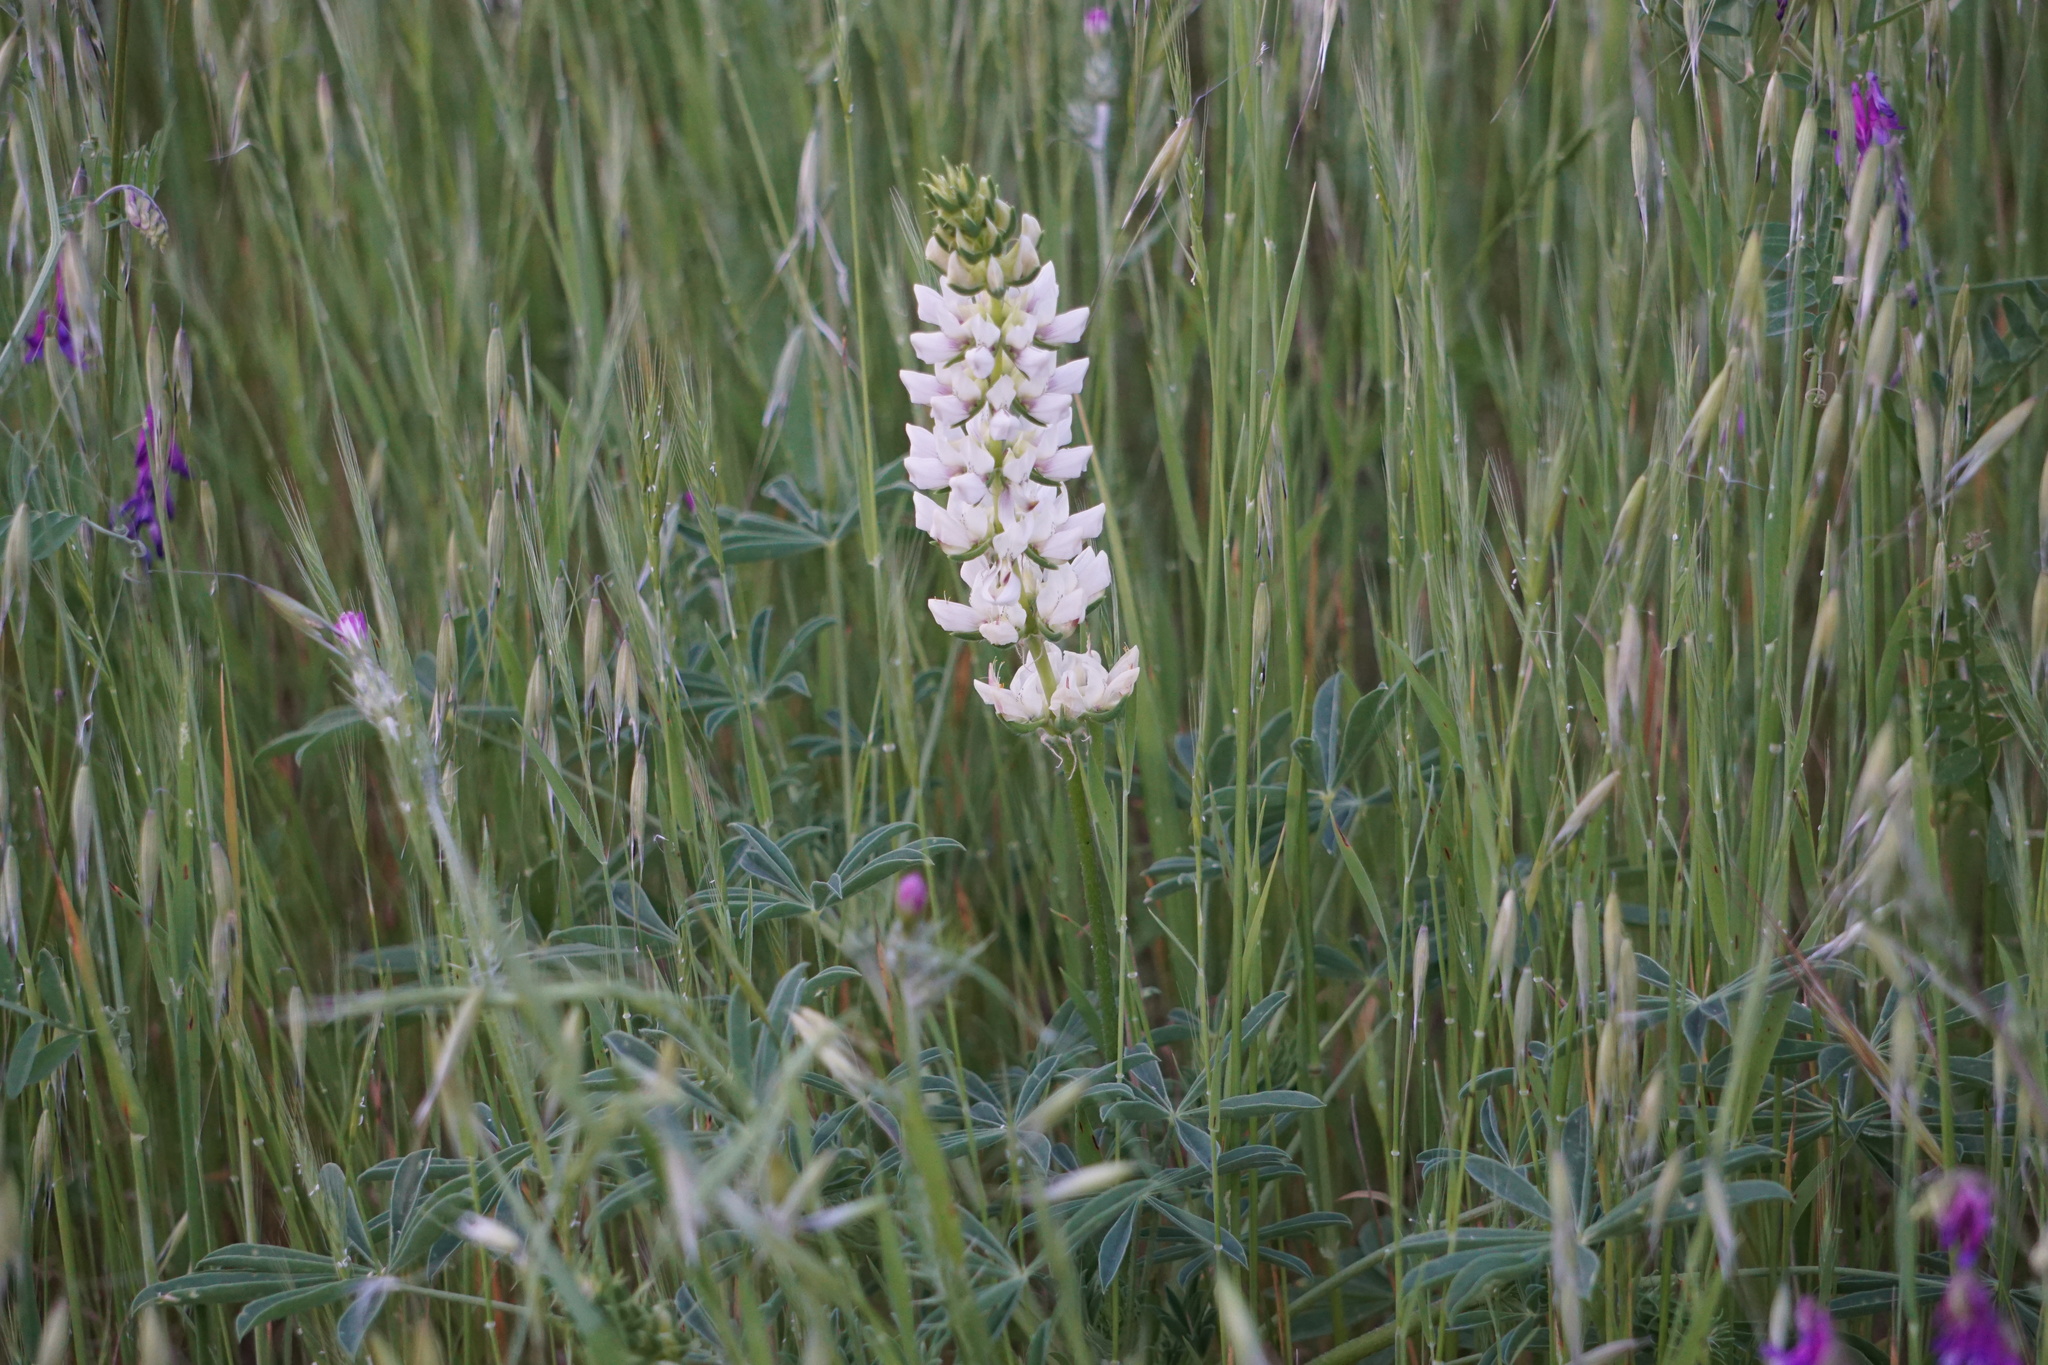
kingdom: Plantae
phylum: Tracheophyta
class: Magnoliopsida
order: Fabales
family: Fabaceae
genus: Lupinus
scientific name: Lupinus microcarpus
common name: Chick lupine
